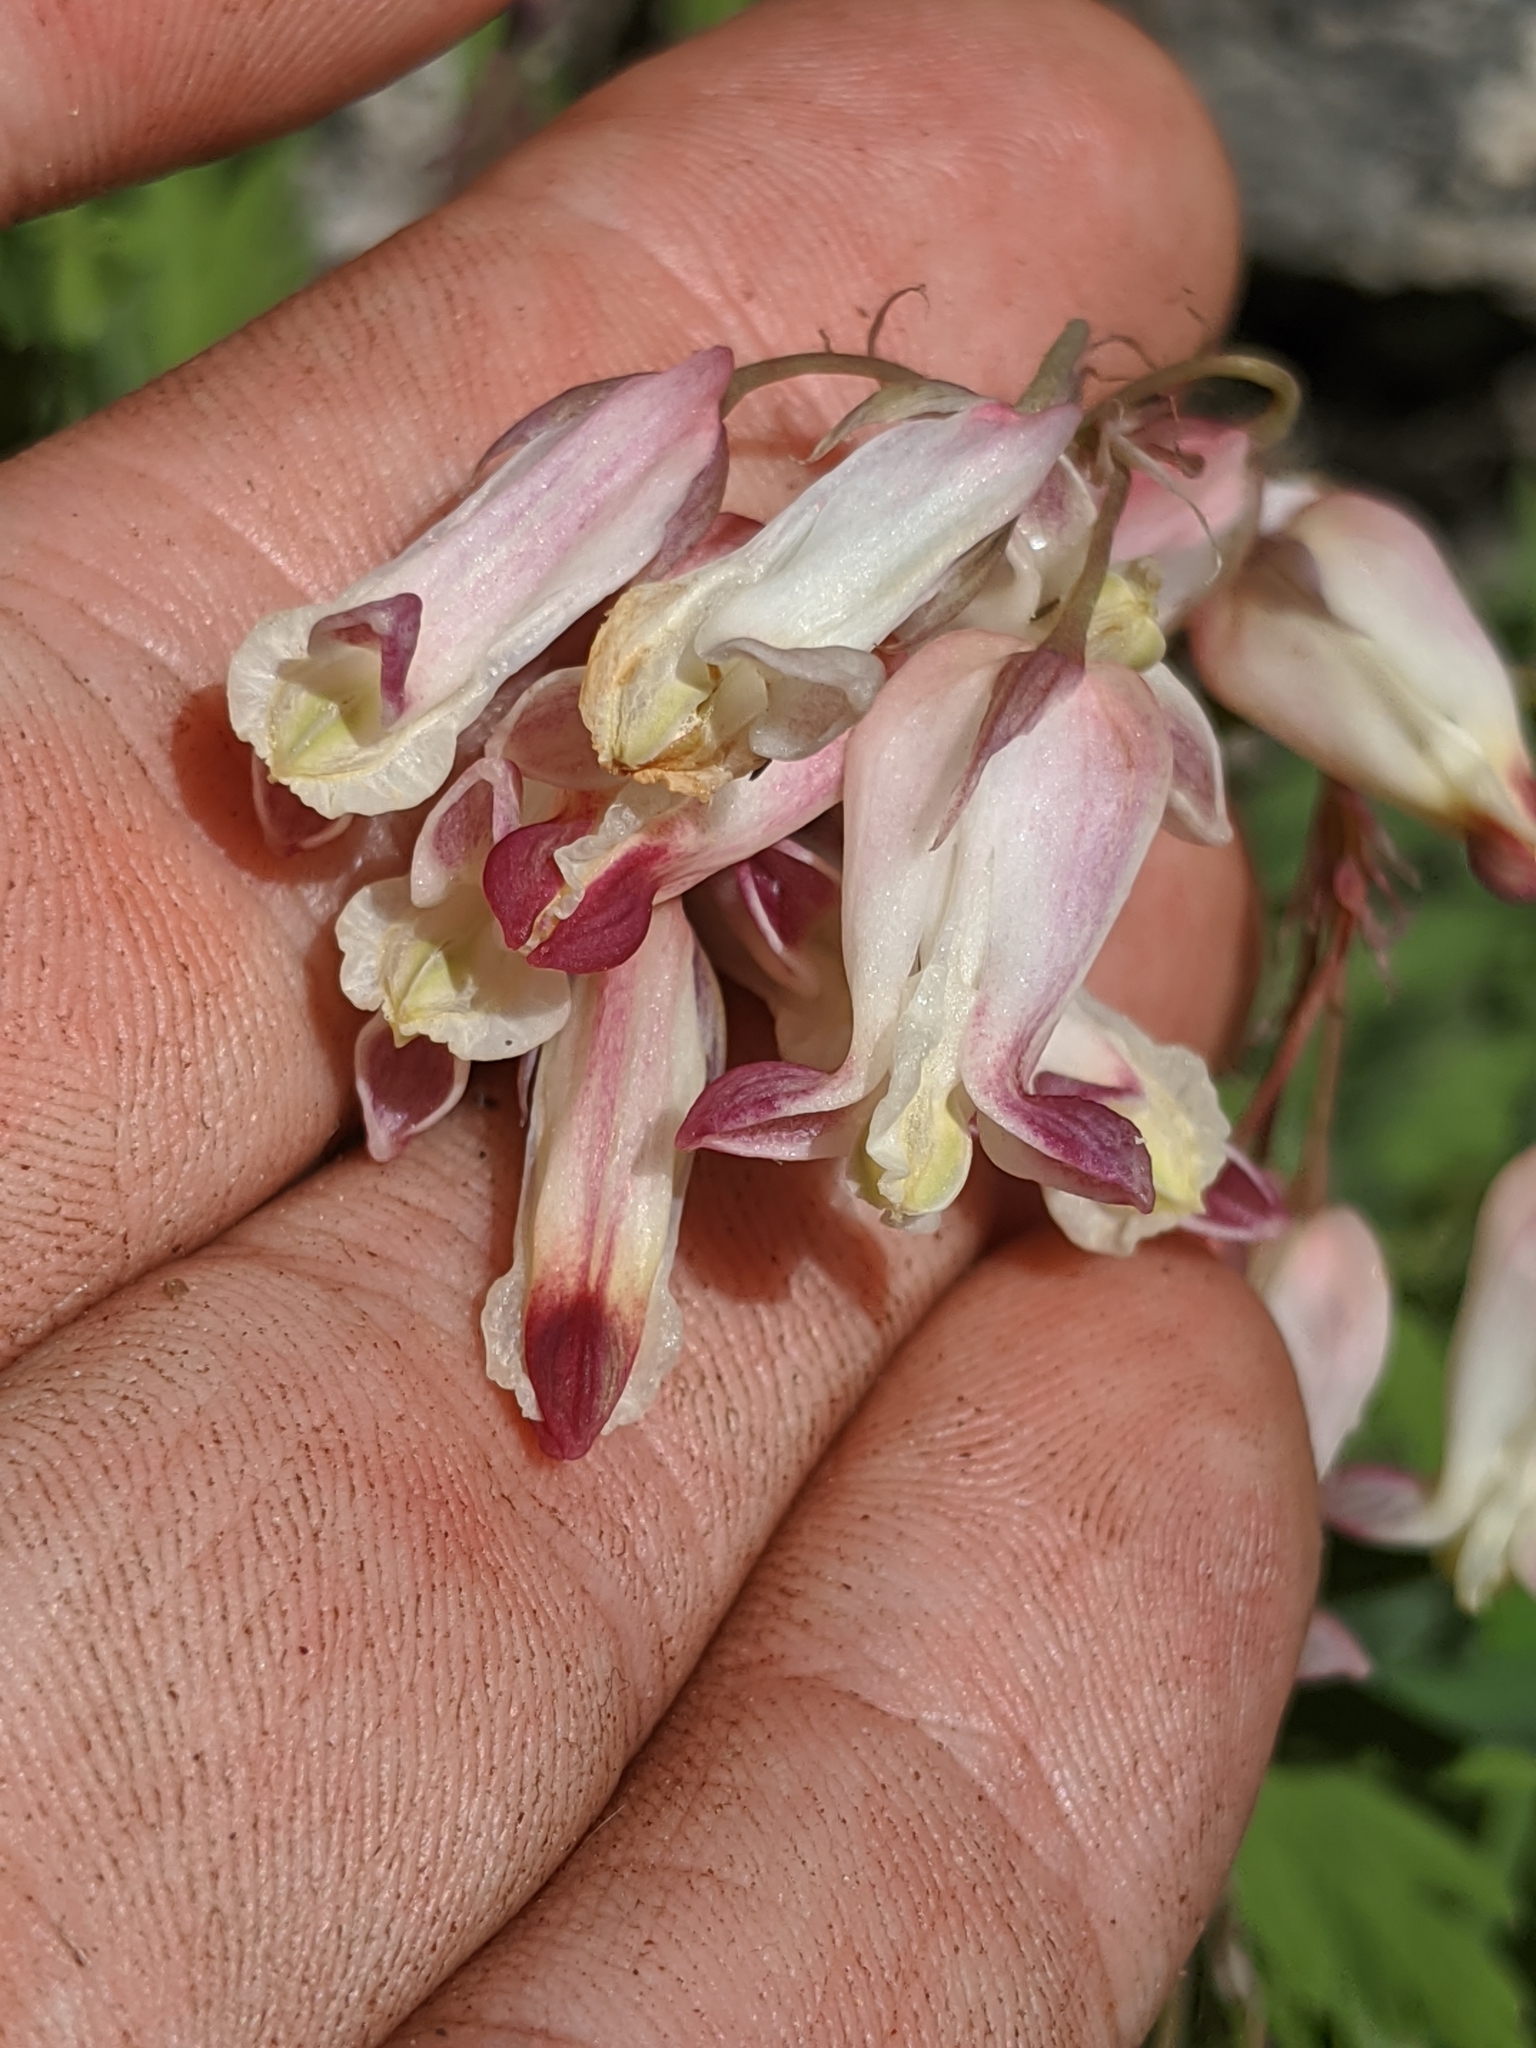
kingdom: Plantae
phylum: Tracheophyta
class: Magnoliopsida
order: Ranunculales
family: Papaveraceae
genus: Dicentra
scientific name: Dicentra nevadensis
